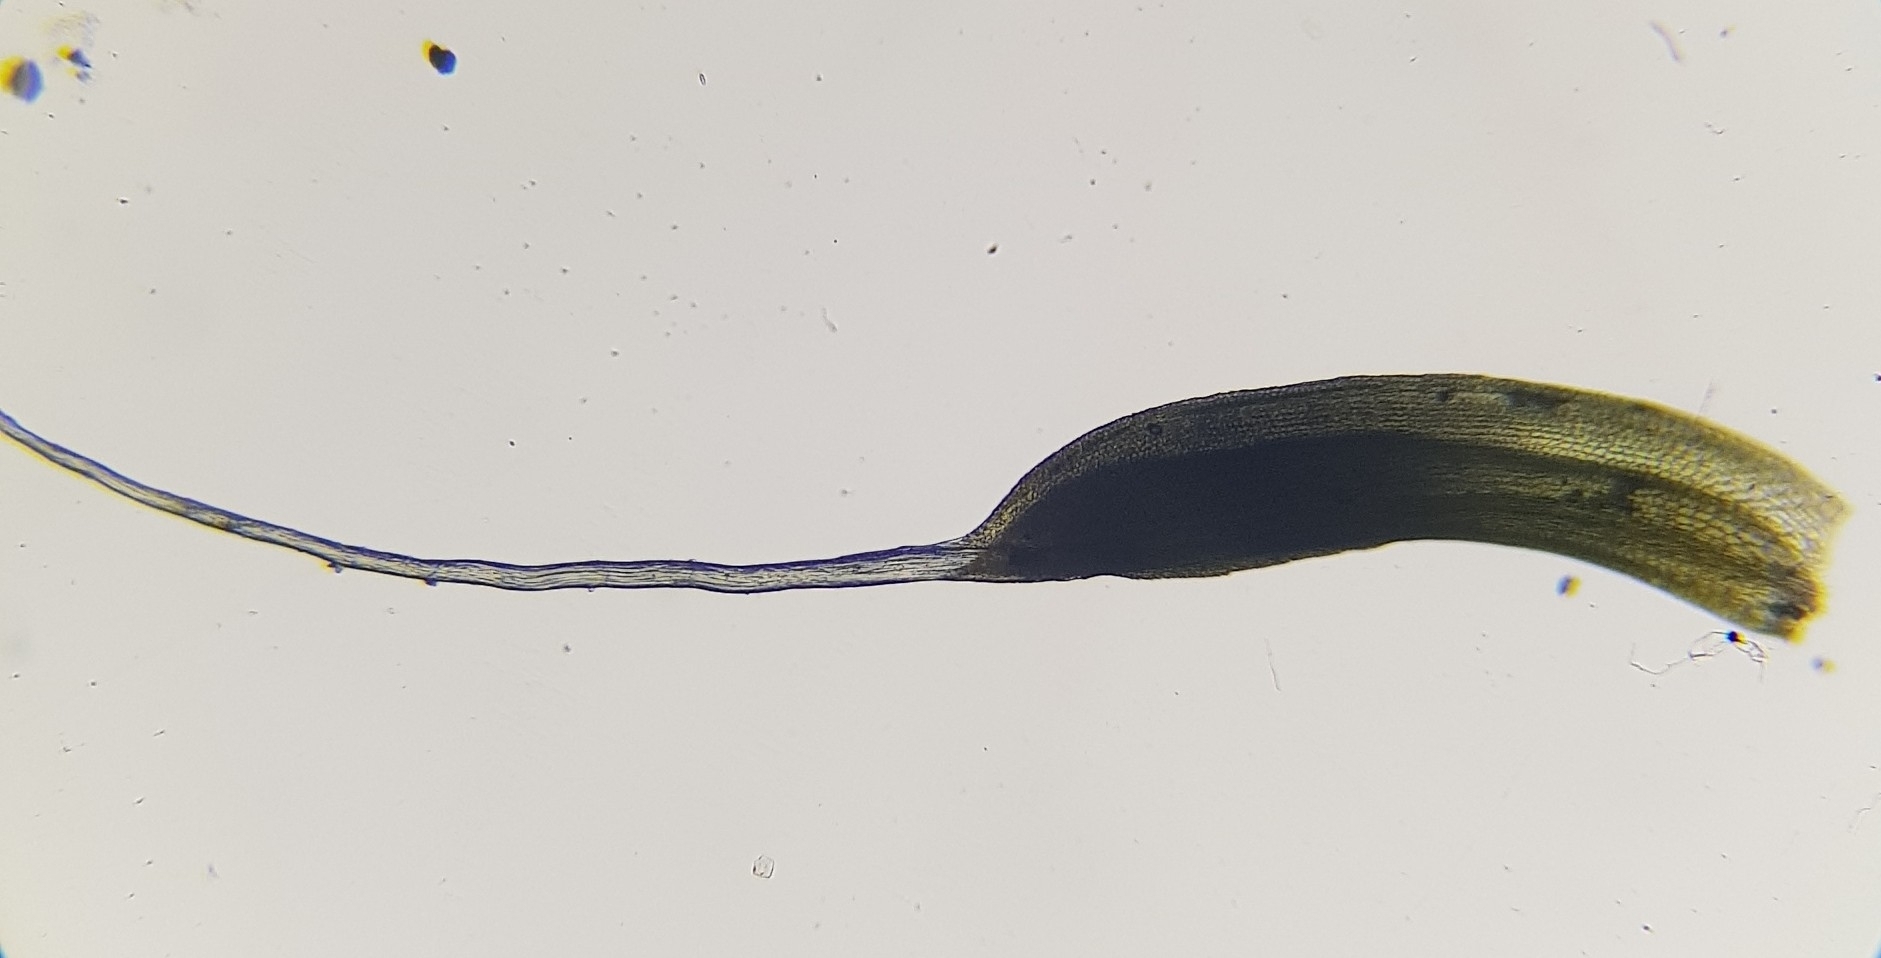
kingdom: Plantae
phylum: Bryophyta
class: Bryopsida
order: Pottiales
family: Pottiaceae
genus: Tortula
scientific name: Tortula muralis
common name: Wall screw-moss
